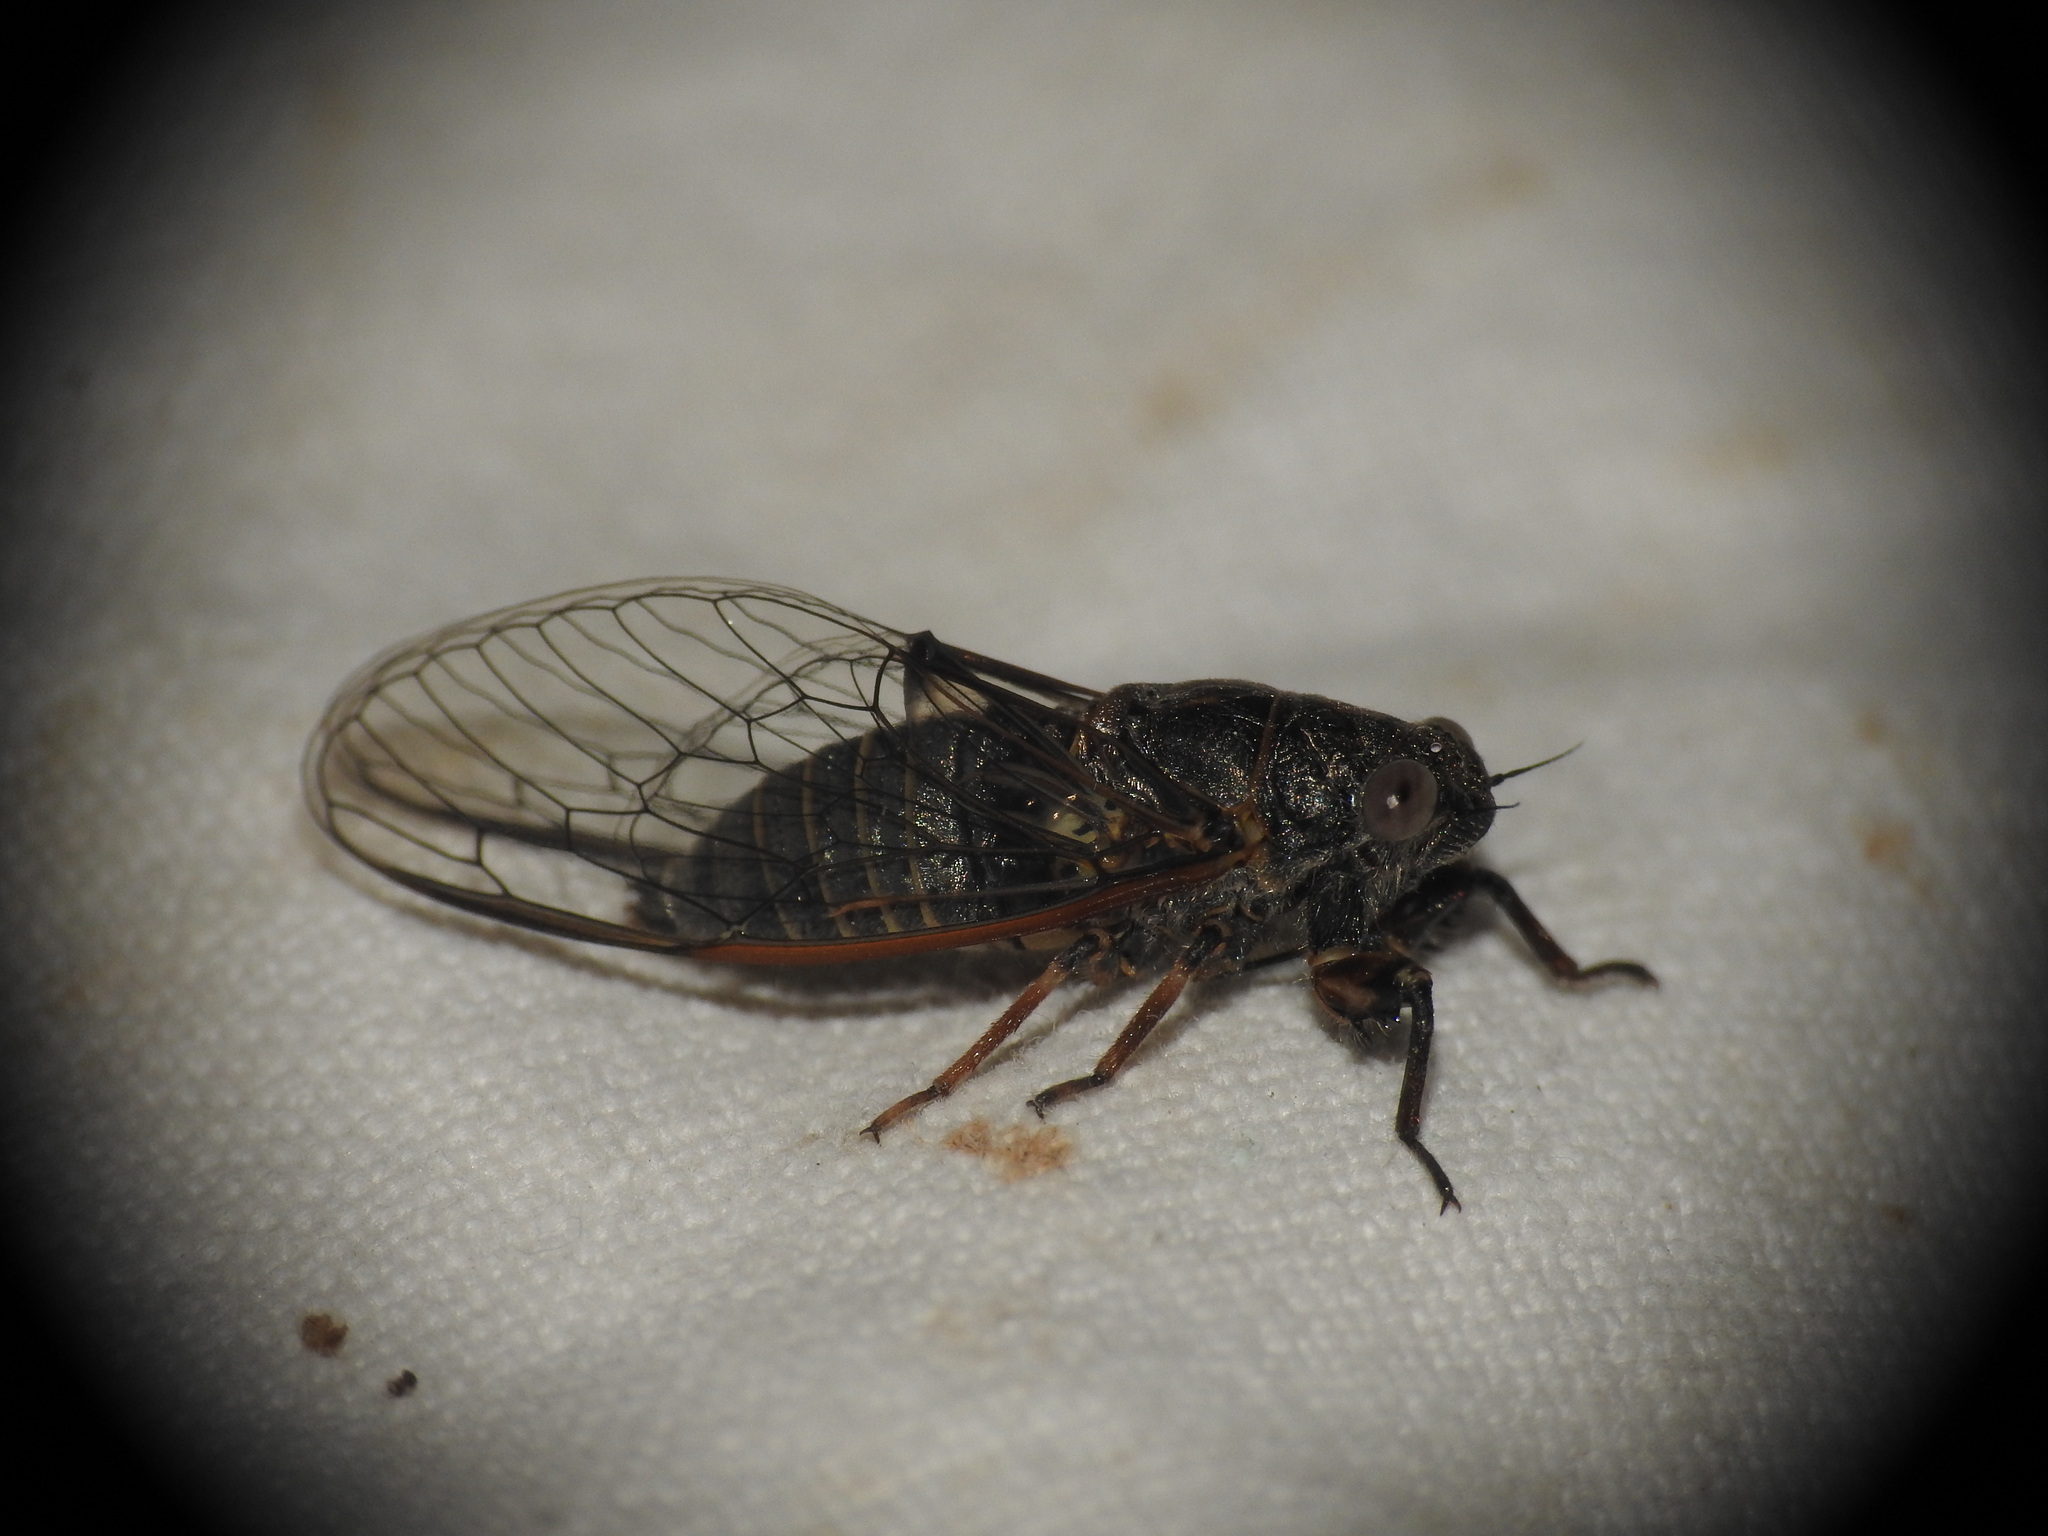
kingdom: Animalia
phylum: Arthropoda
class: Insecta
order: Hemiptera
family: Cicadidae
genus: Tettigettula
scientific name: Tettigettula pygmea
